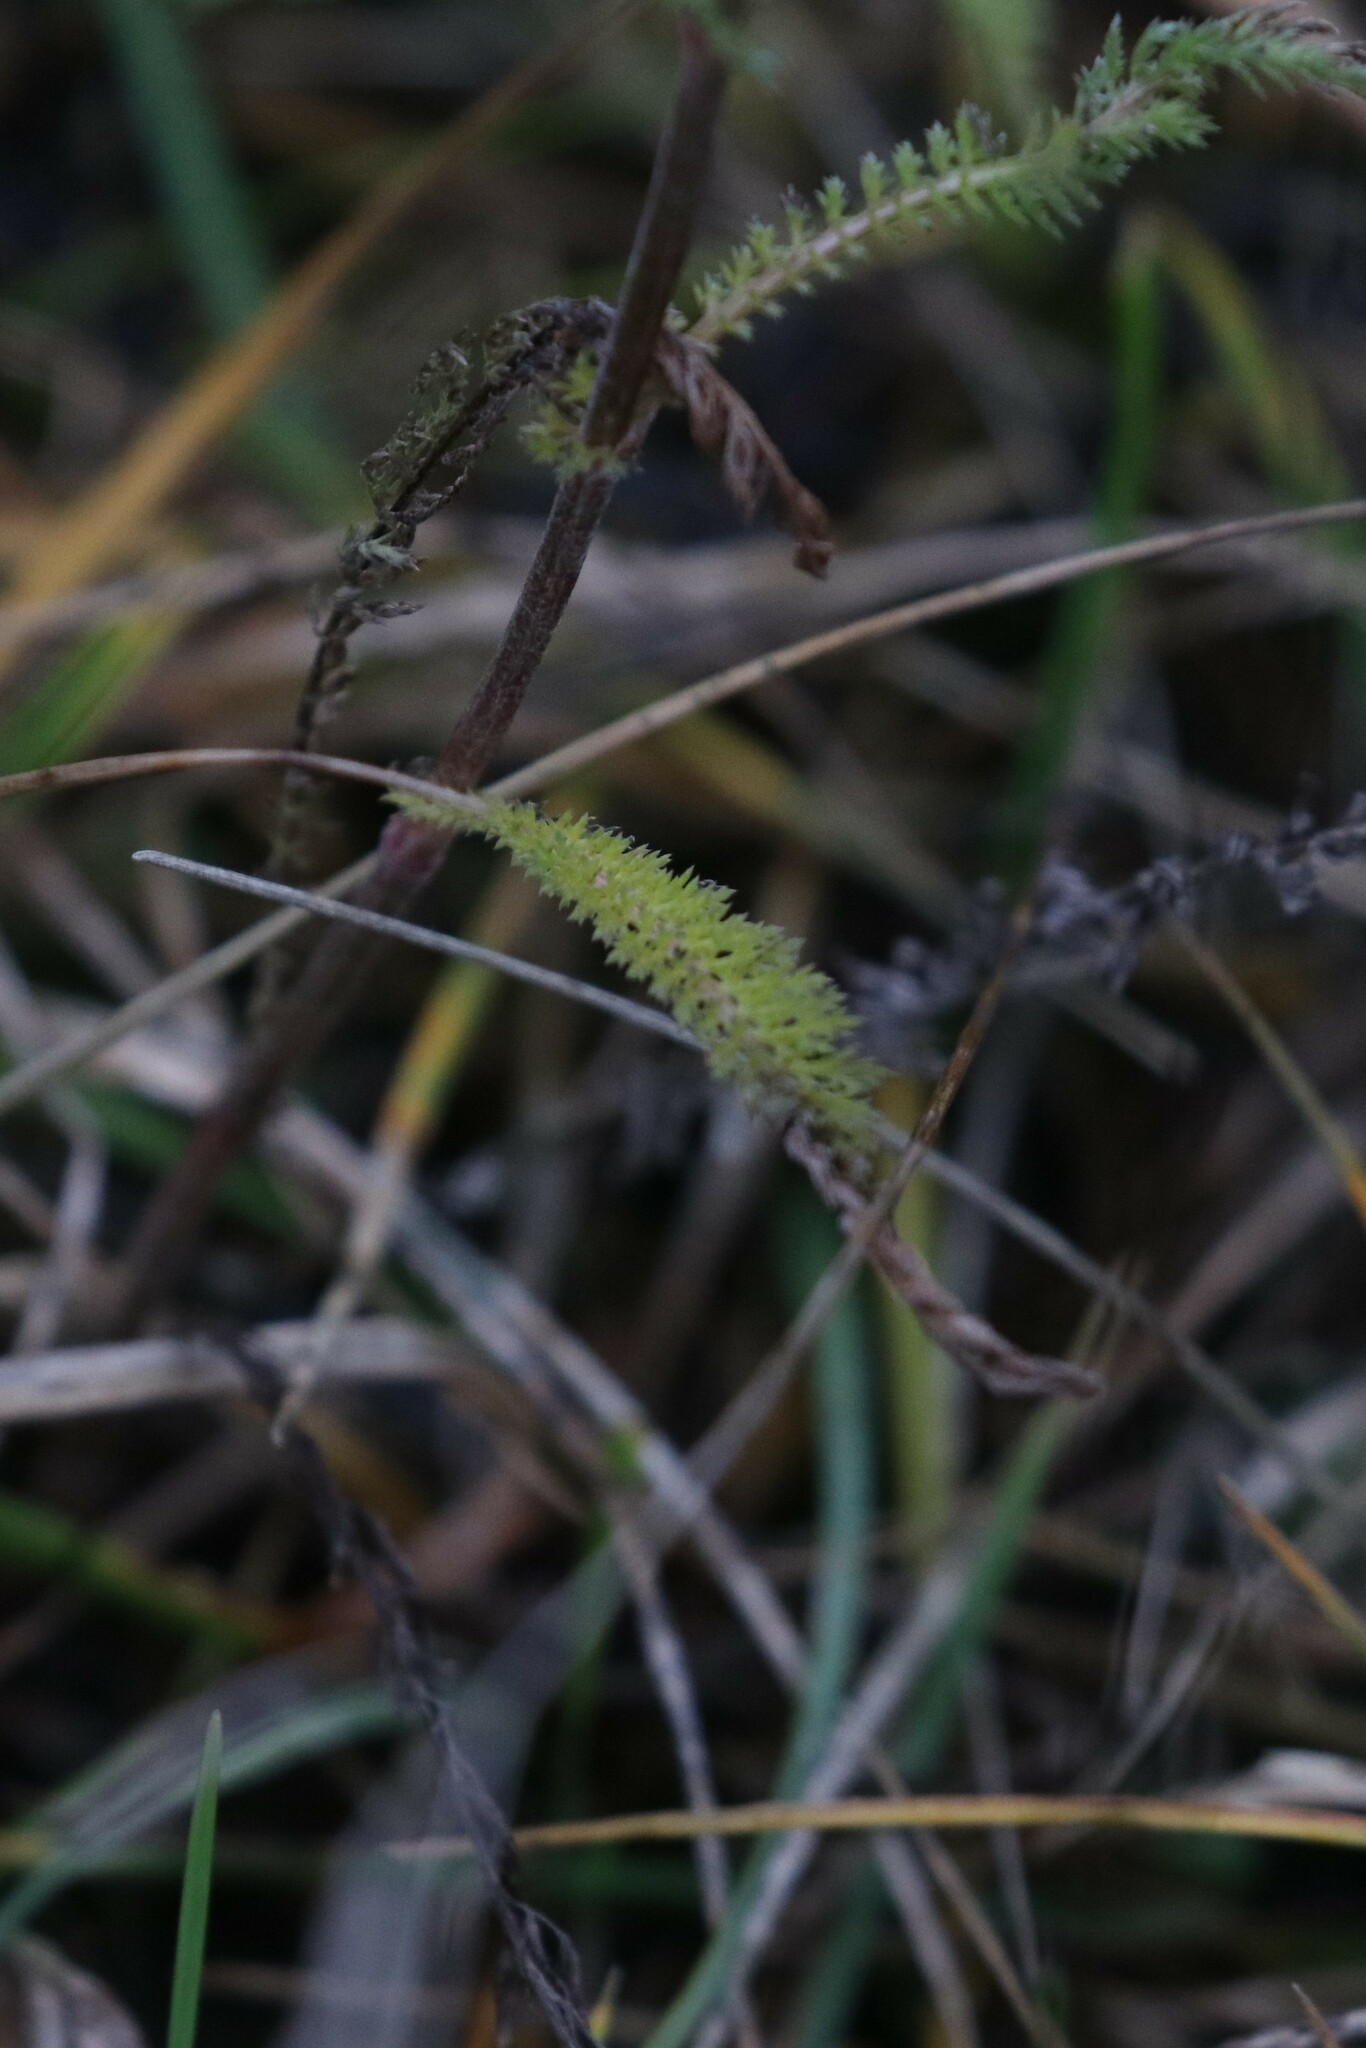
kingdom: Plantae
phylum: Tracheophyta
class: Magnoliopsida
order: Asterales
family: Asteraceae
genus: Achillea
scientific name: Achillea millefolium
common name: Yarrow
